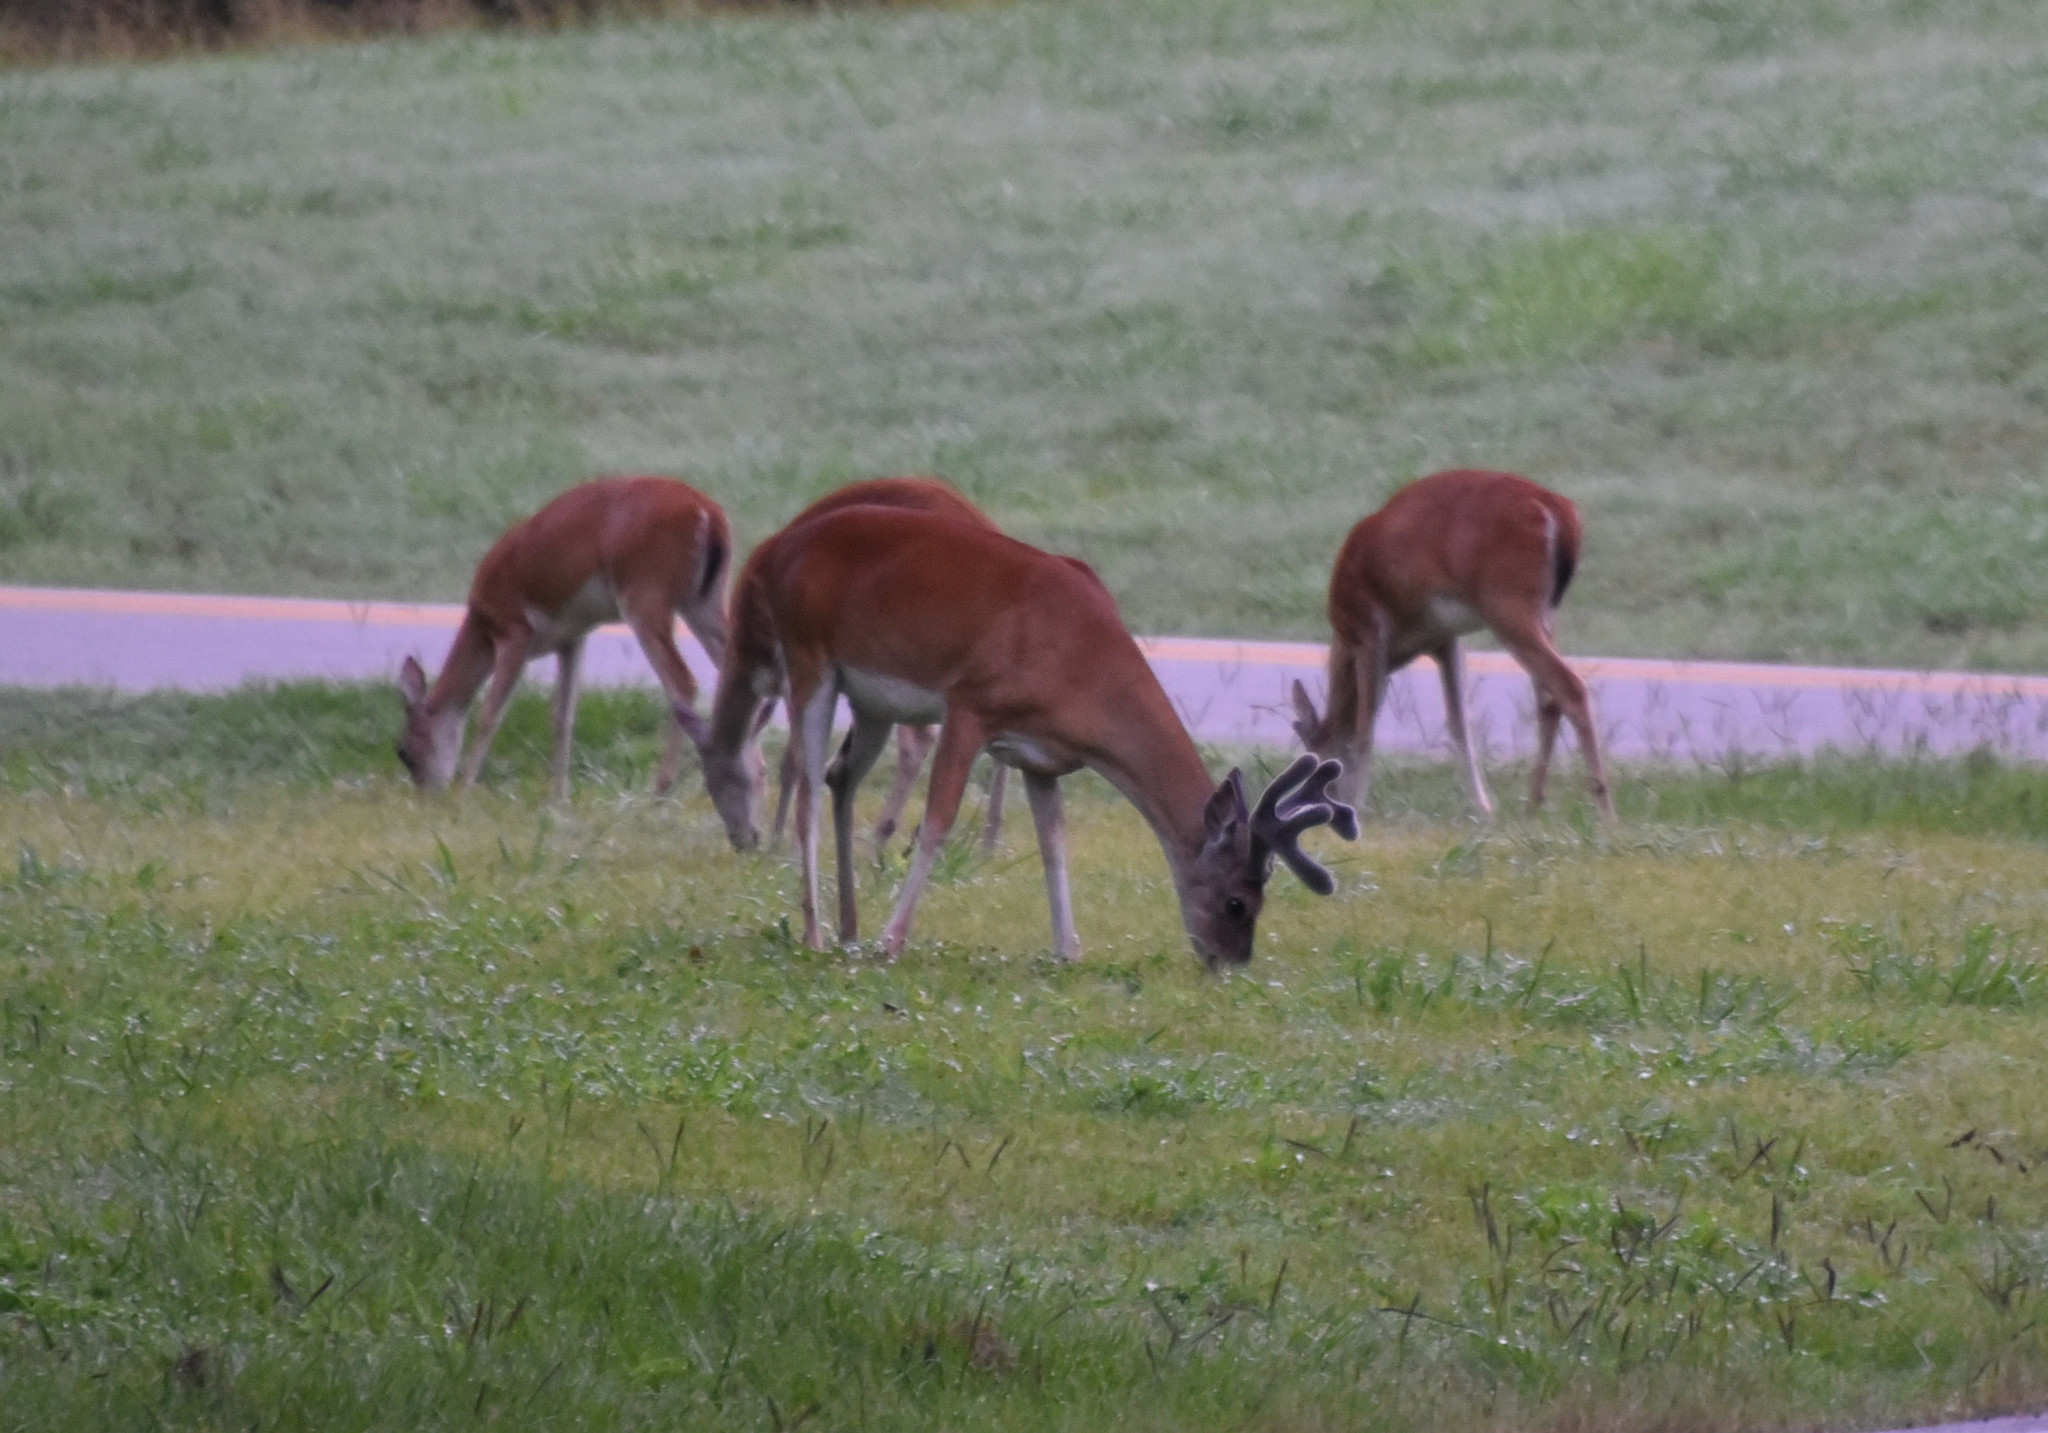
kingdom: Animalia
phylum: Chordata
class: Mammalia
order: Artiodactyla
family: Cervidae
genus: Odocoileus
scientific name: Odocoileus virginianus
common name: White-tailed deer
